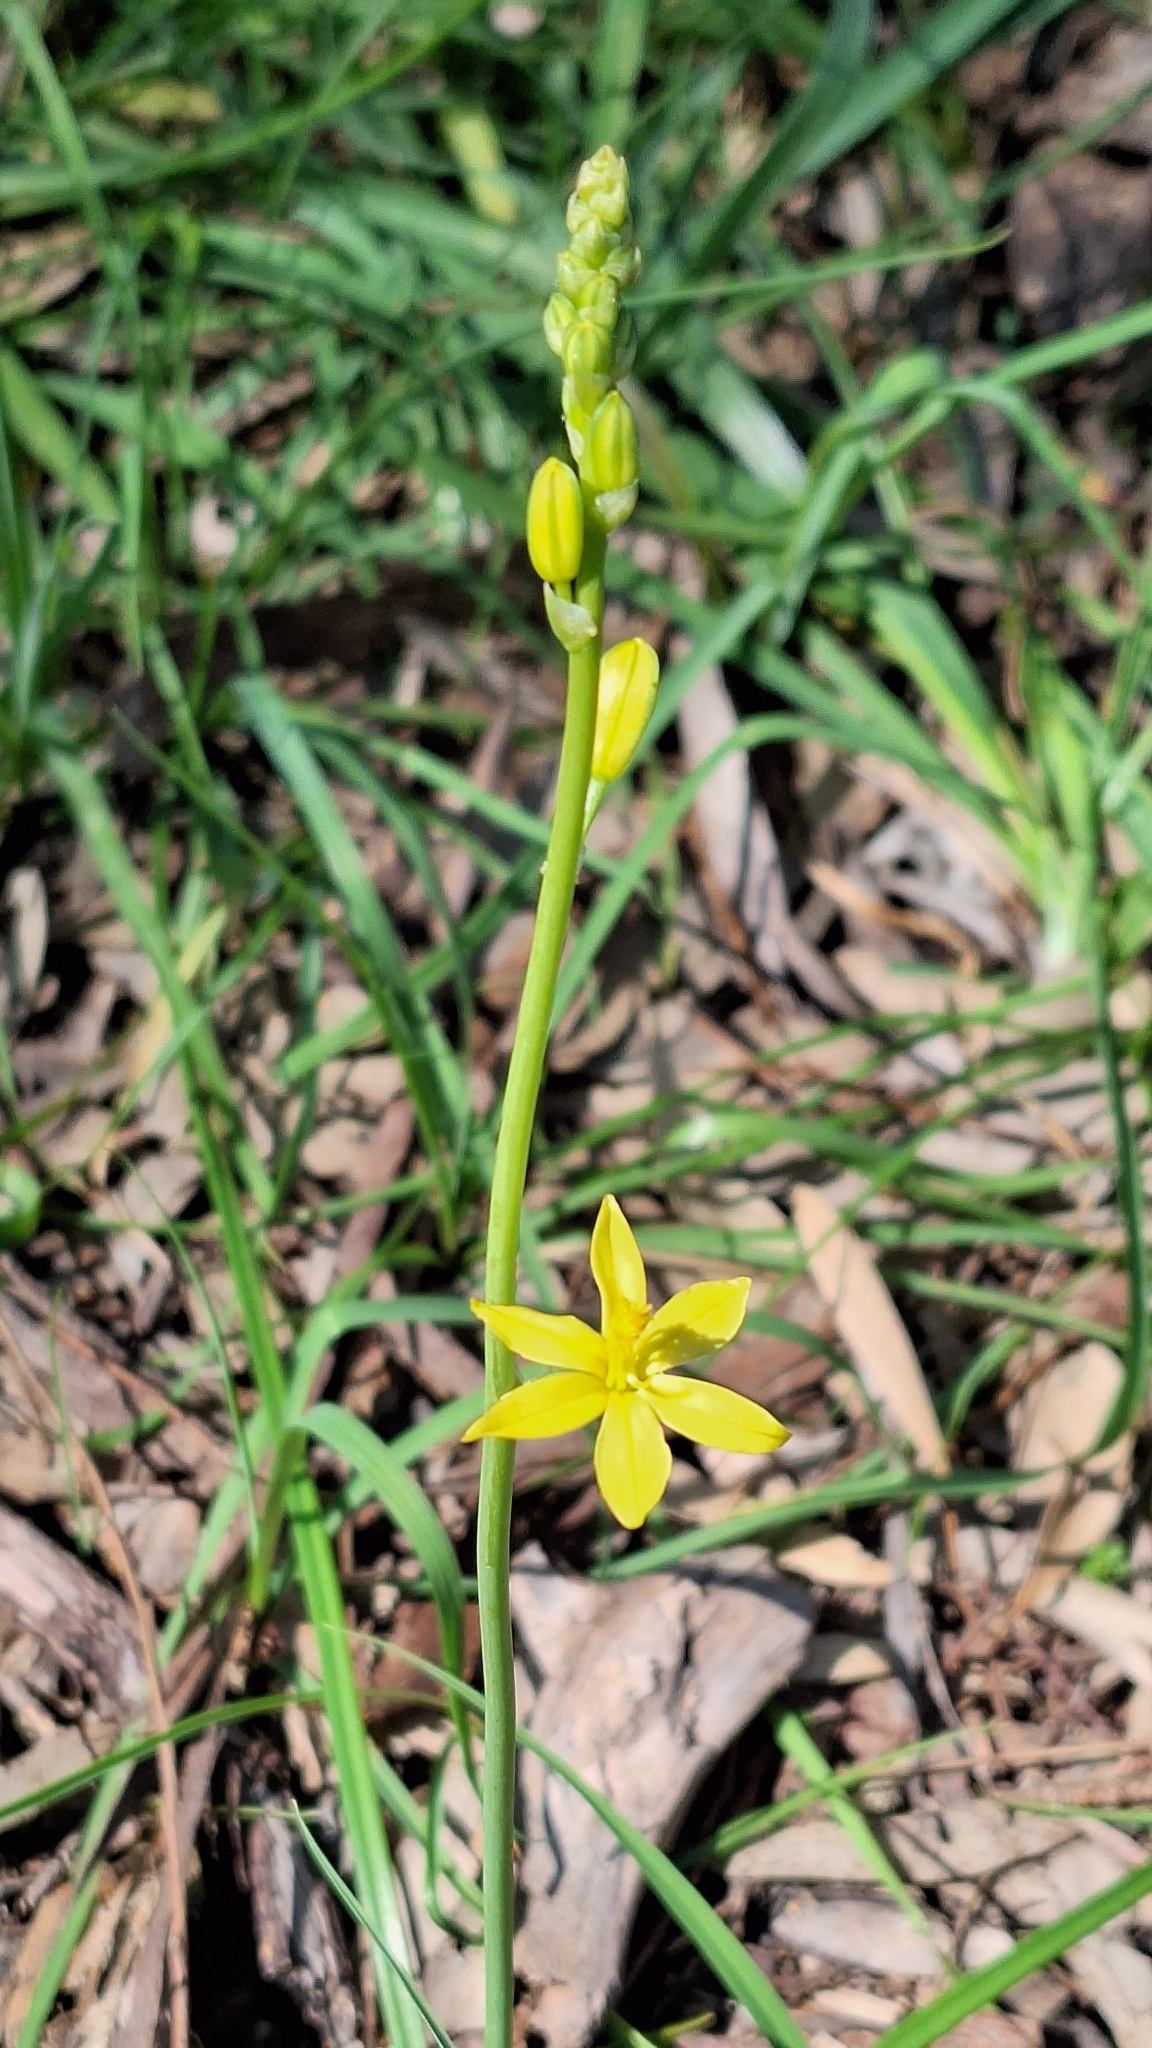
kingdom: Plantae
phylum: Tracheophyta
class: Liliopsida
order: Asparagales
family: Asphodelaceae
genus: Bulbine
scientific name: Bulbine bulbosa
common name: Golden-lily
